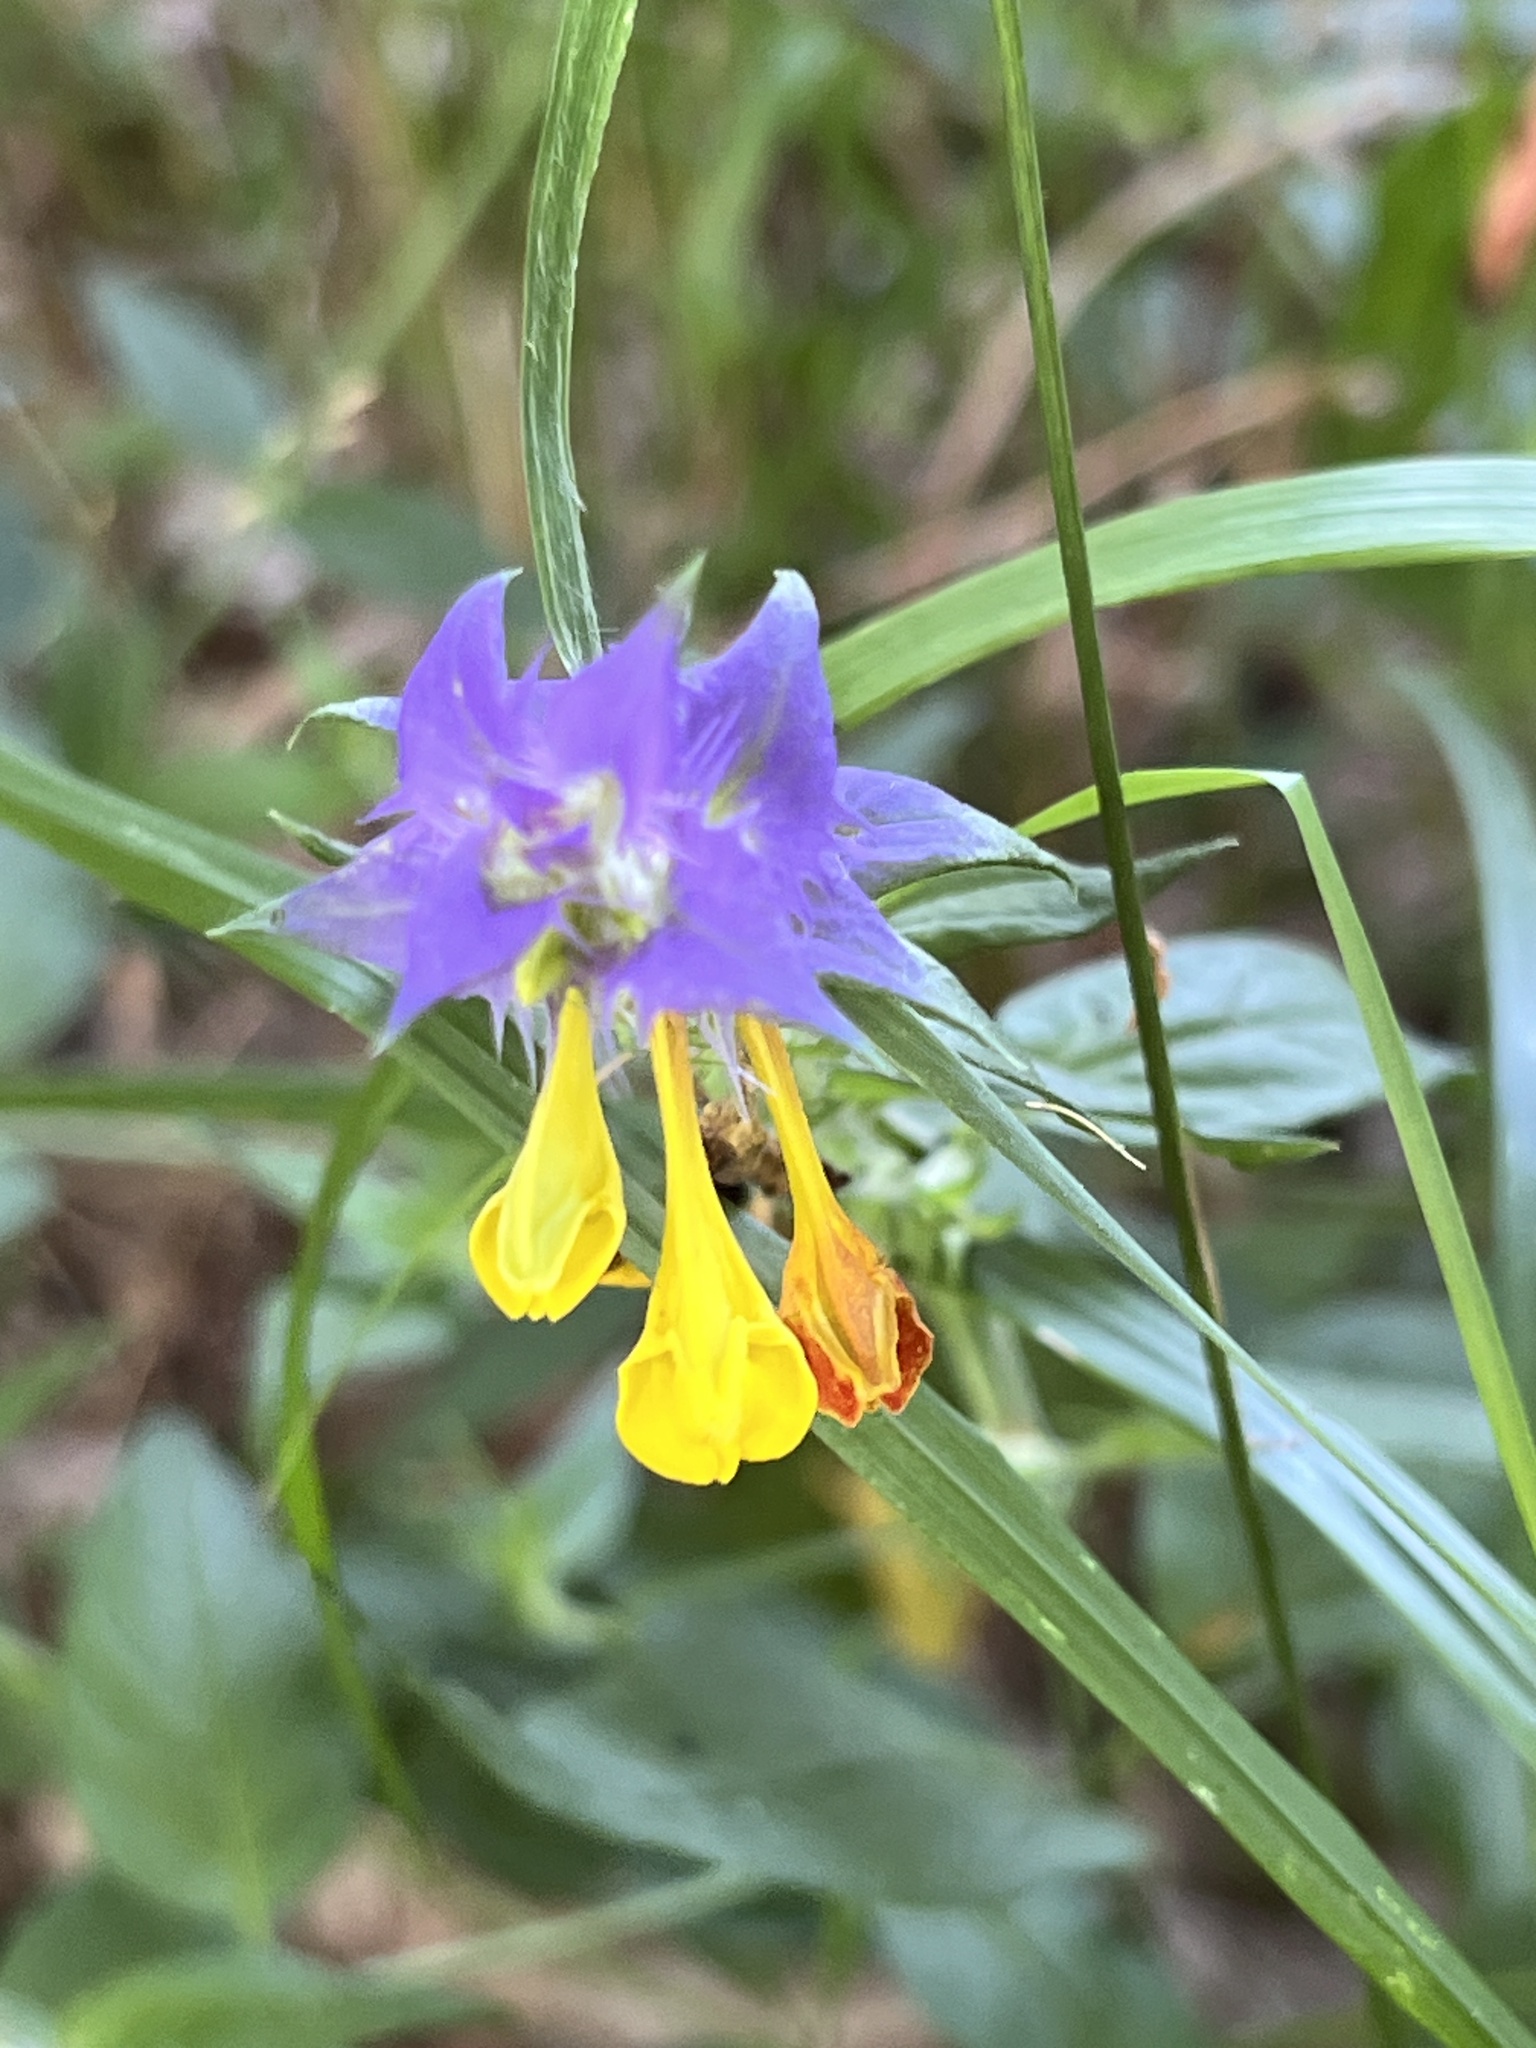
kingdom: Plantae
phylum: Tracheophyta
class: Magnoliopsida
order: Lamiales
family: Orobanchaceae
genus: Melampyrum
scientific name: Melampyrum nemorosum
